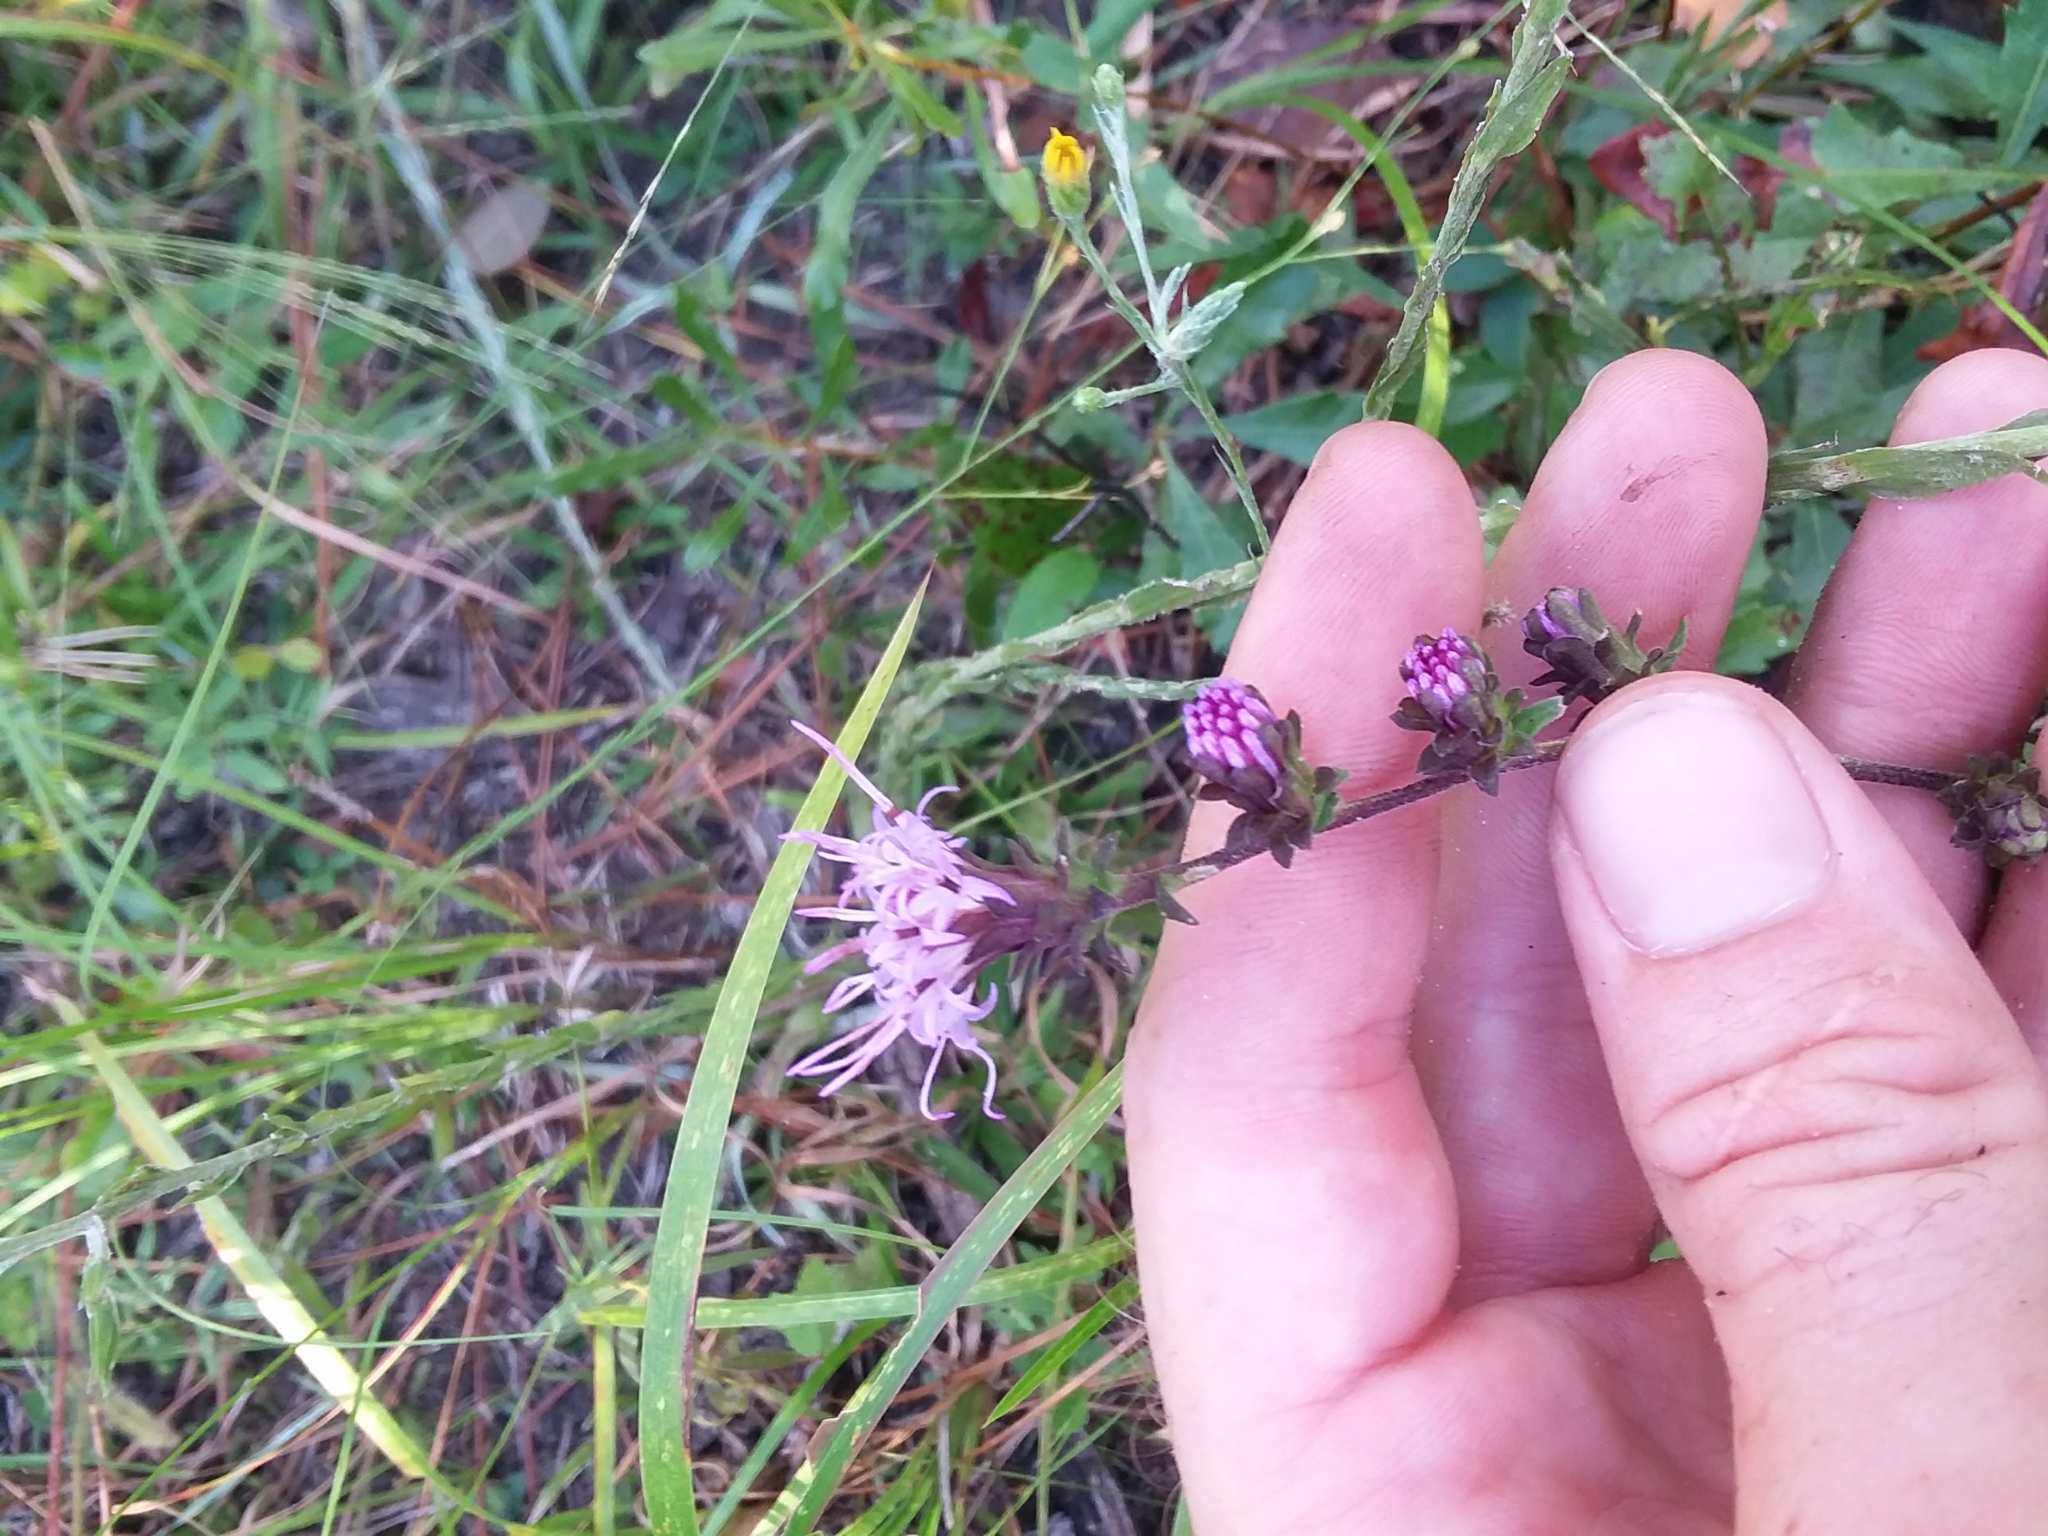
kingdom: Plantae
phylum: Tracheophyta
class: Magnoliopsida
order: Asterales
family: Asteraceae
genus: Liatris
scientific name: Liatris squarrulosa
